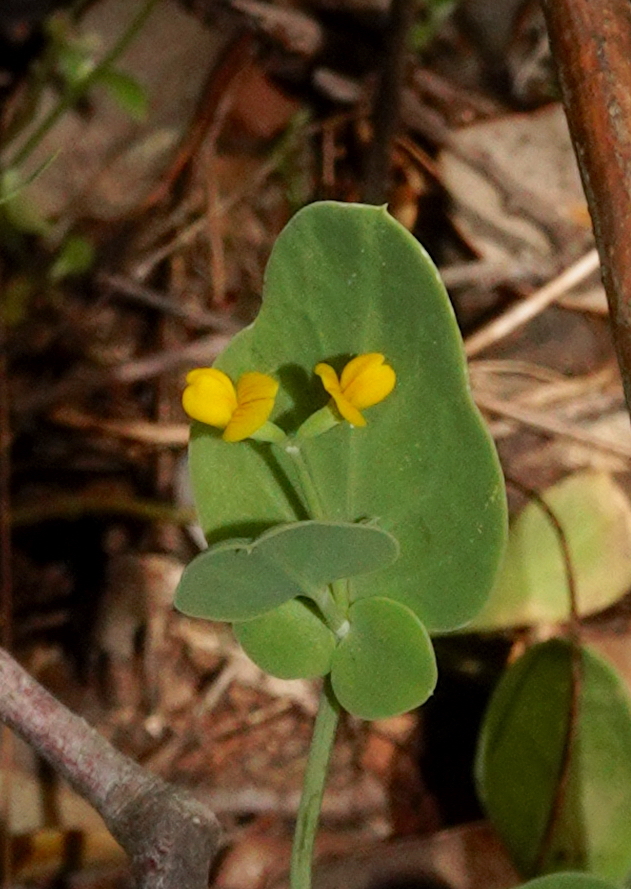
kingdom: Plantae
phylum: Tracheophyta
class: Magnoliopsida
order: Fabales
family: Fabaceae
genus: Coronilla
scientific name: Coronilla scorpioides
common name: Annual scorpion-vetch
